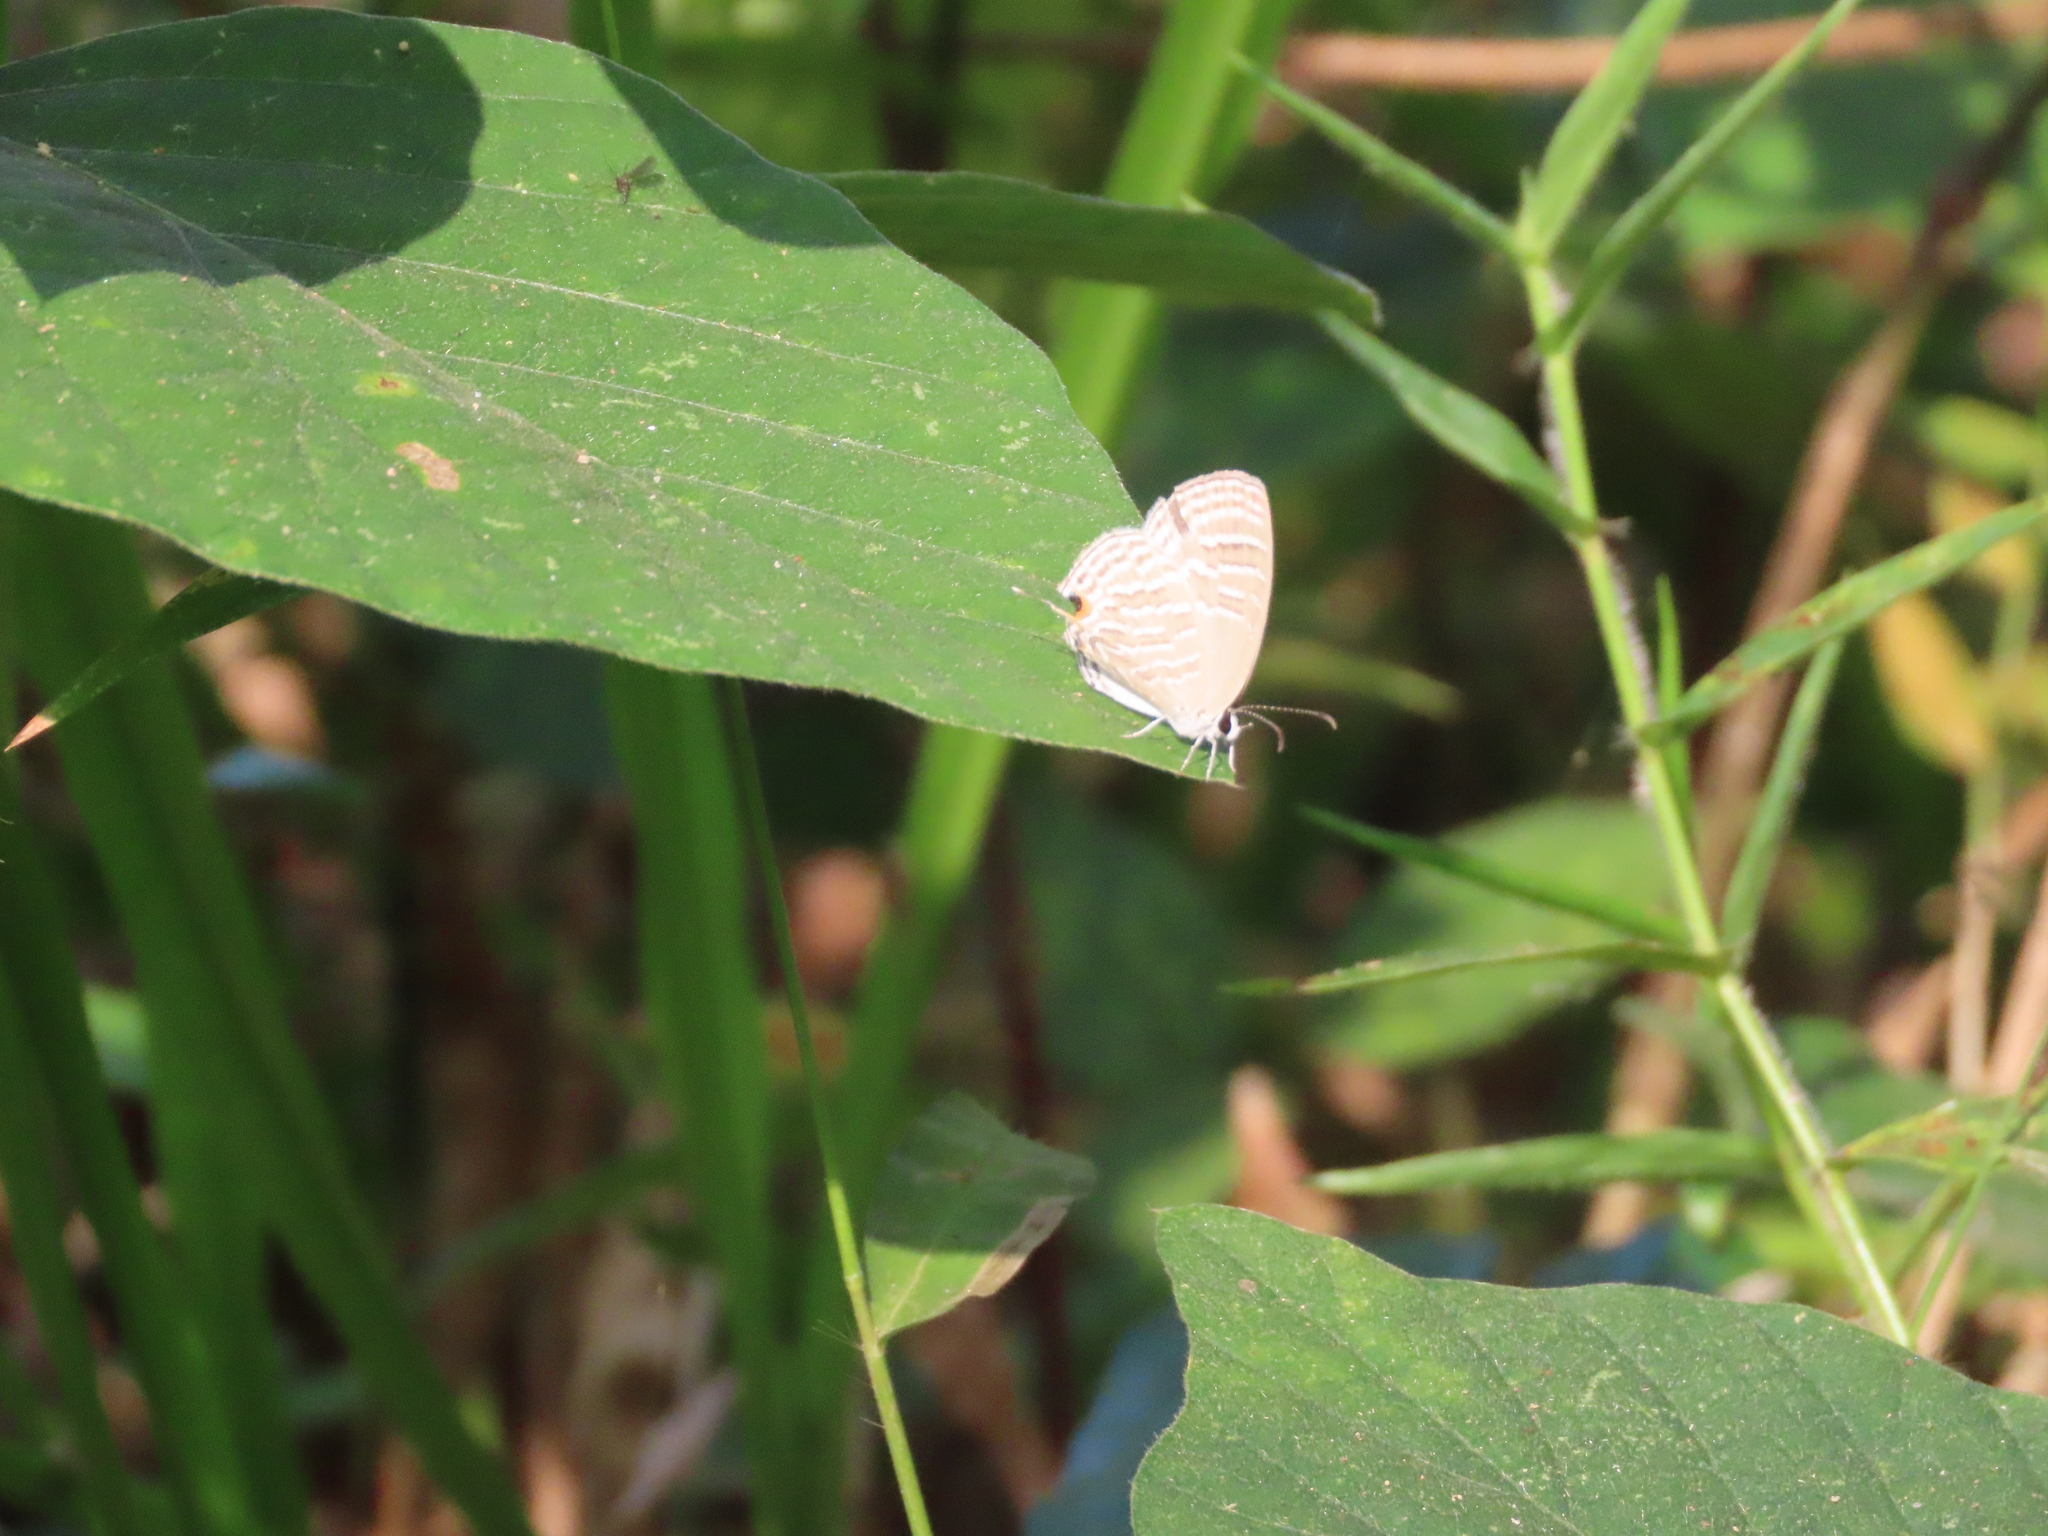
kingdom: Animalia
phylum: Arthropoda
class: Insecta
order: Lepidoptera
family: Lycaenidae
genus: Jamides
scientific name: Jamides celeno
